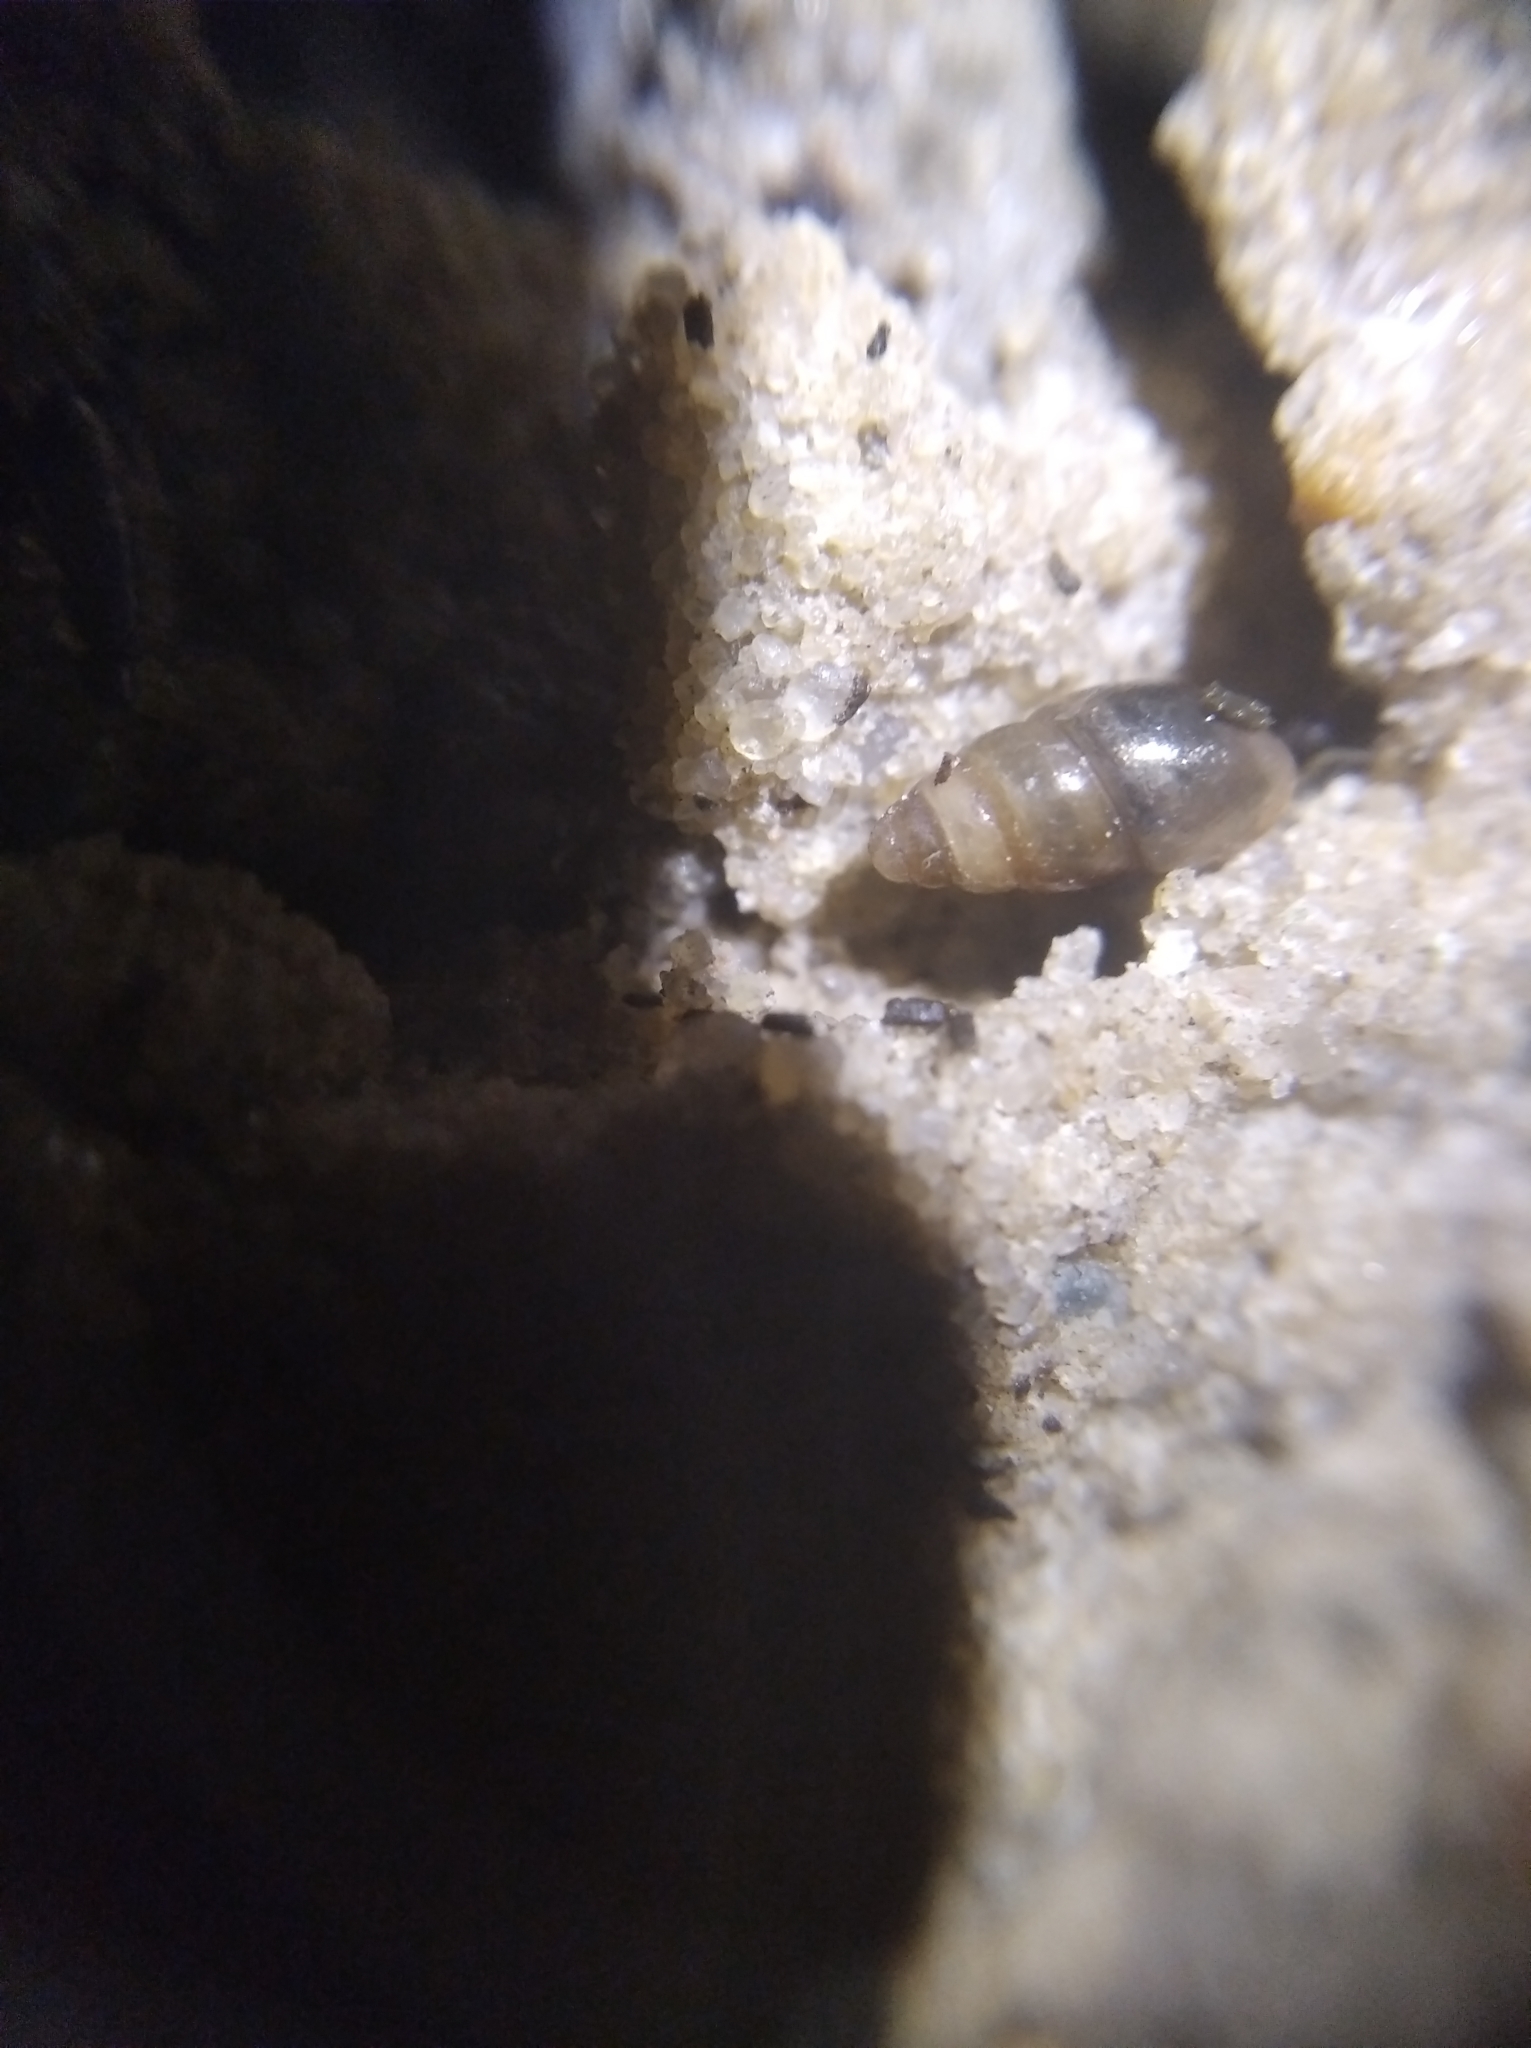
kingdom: Animalia
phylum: Mollusca
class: Gastropoda
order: Stylommatophora
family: Cochlicopidae
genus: Cochlicopa
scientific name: Cochlicopa lubrica
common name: Glossy pillar snail
